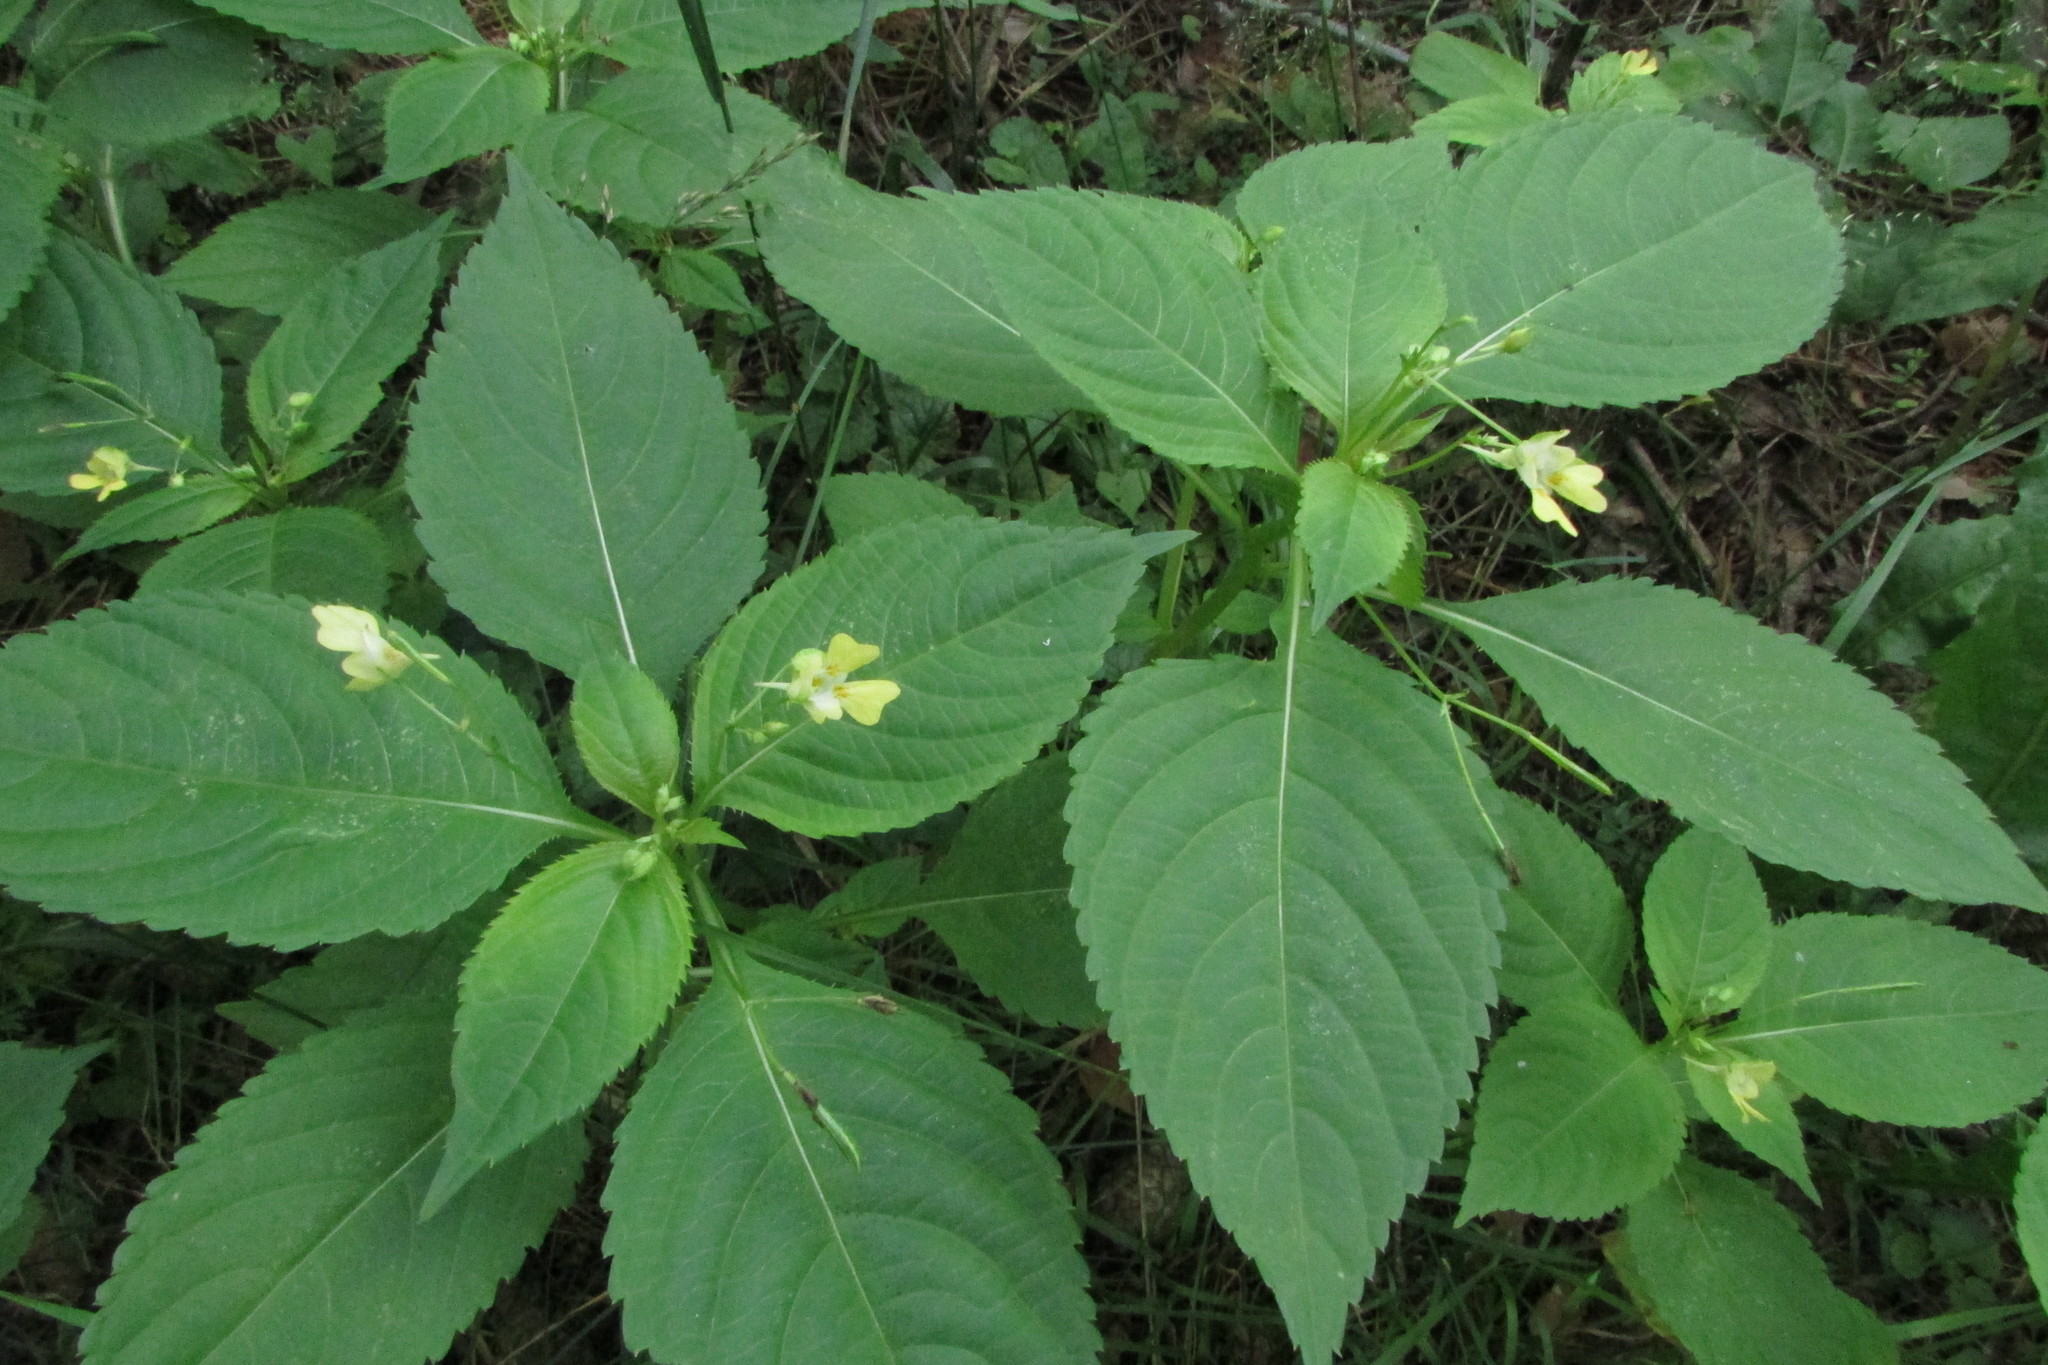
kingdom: Plantae
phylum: Tracheophyta
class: Magnoliopsida
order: Ericales
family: Balsaminaceae
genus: Impatiens
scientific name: Impatiens parviflora
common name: Small balsam
